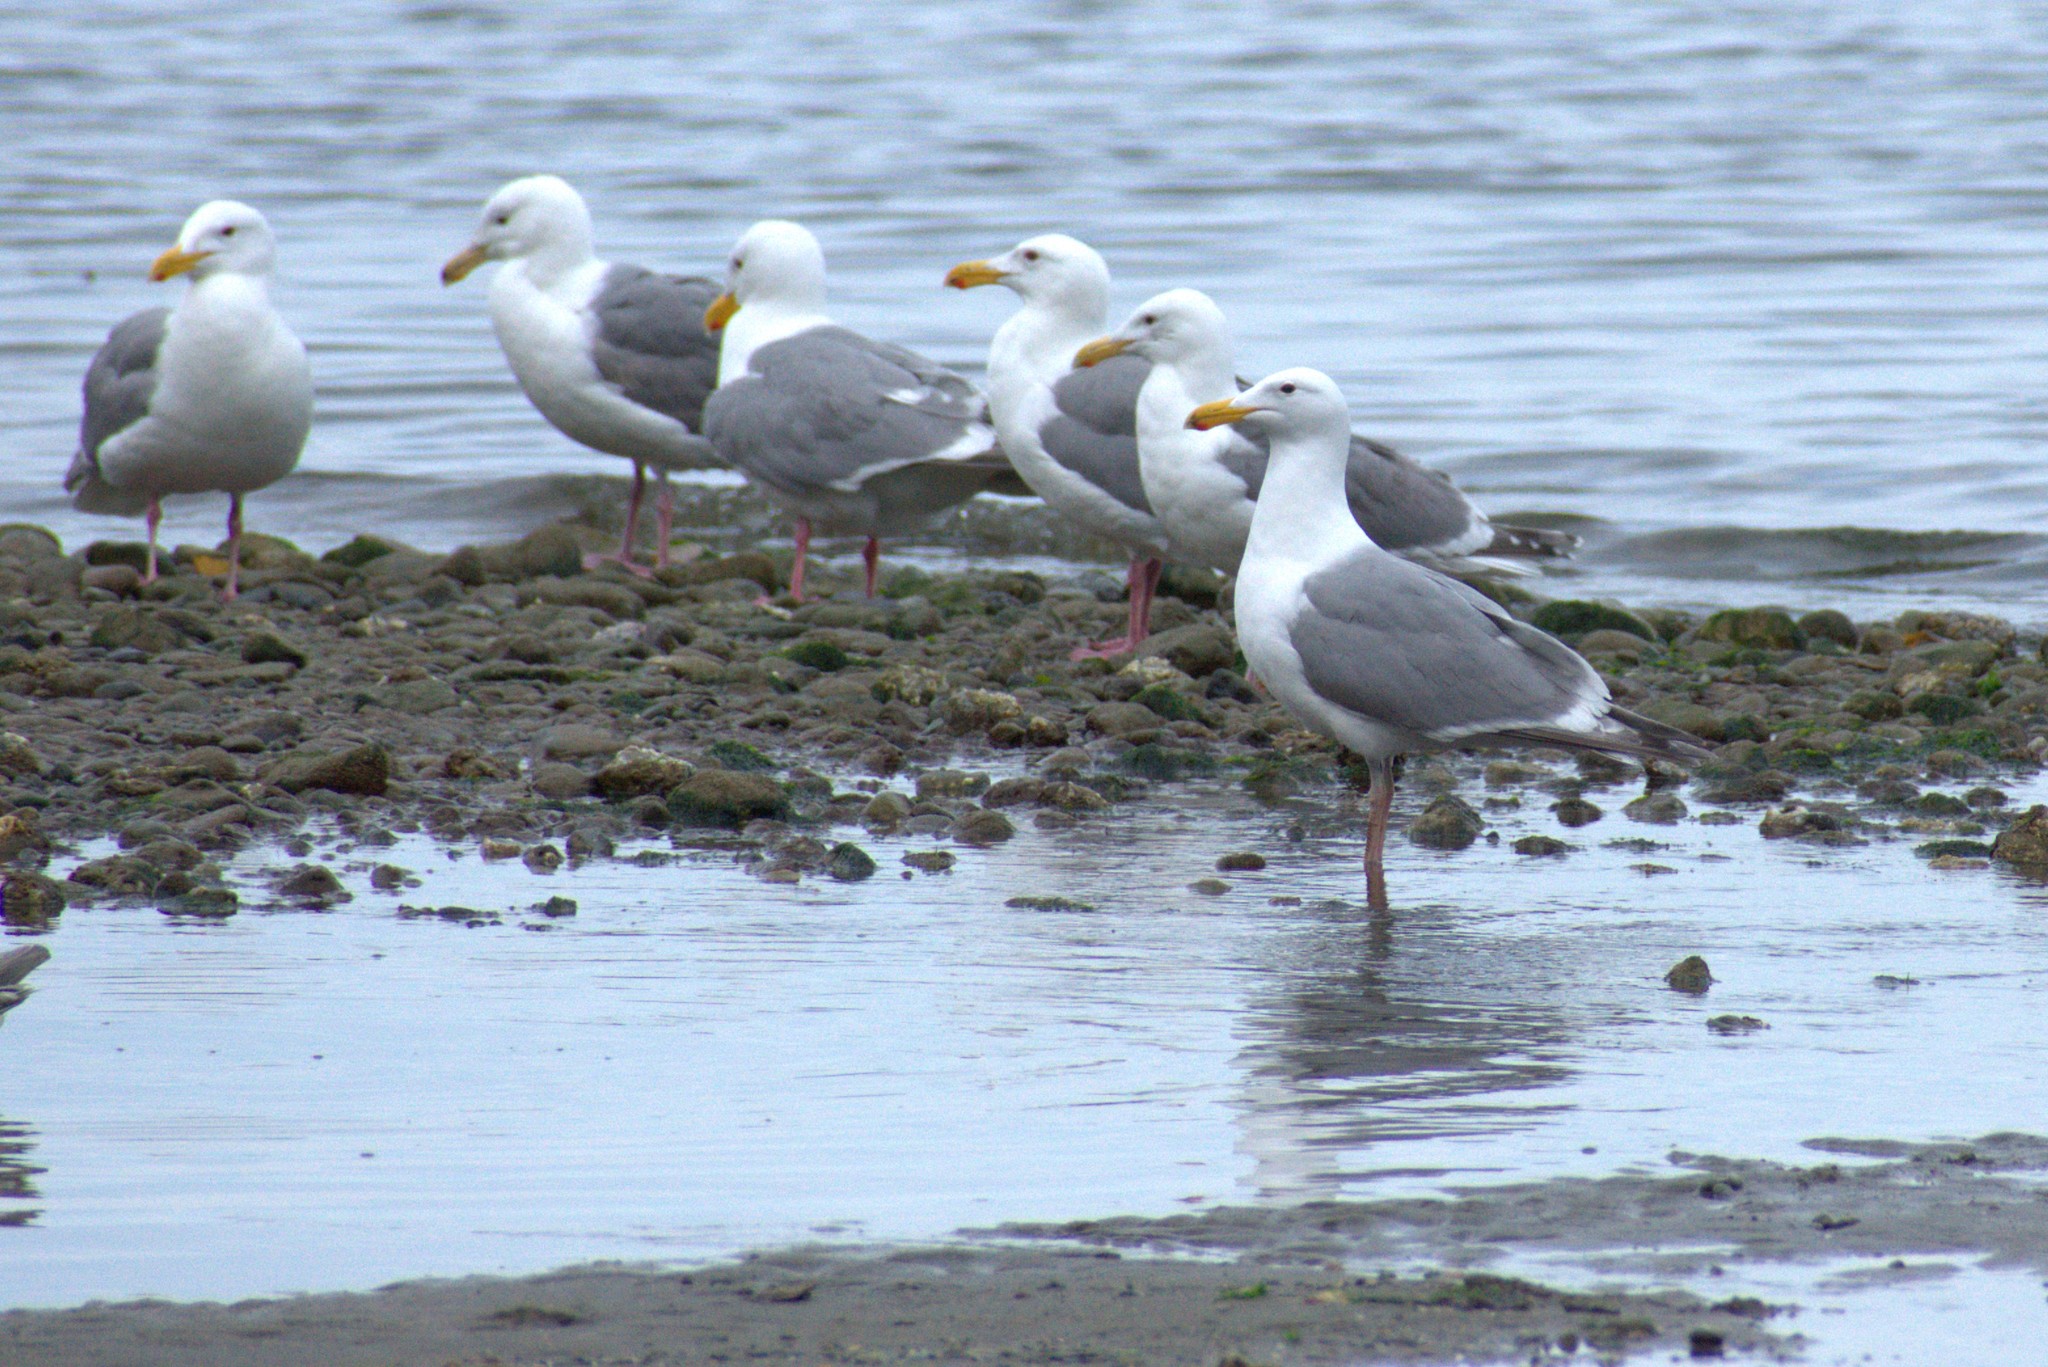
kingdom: Animalia
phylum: Chordata
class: Aves
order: Charadriiformes
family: Laridae
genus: Larus
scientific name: Larus glaucescens
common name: Glaucous-winged gull
